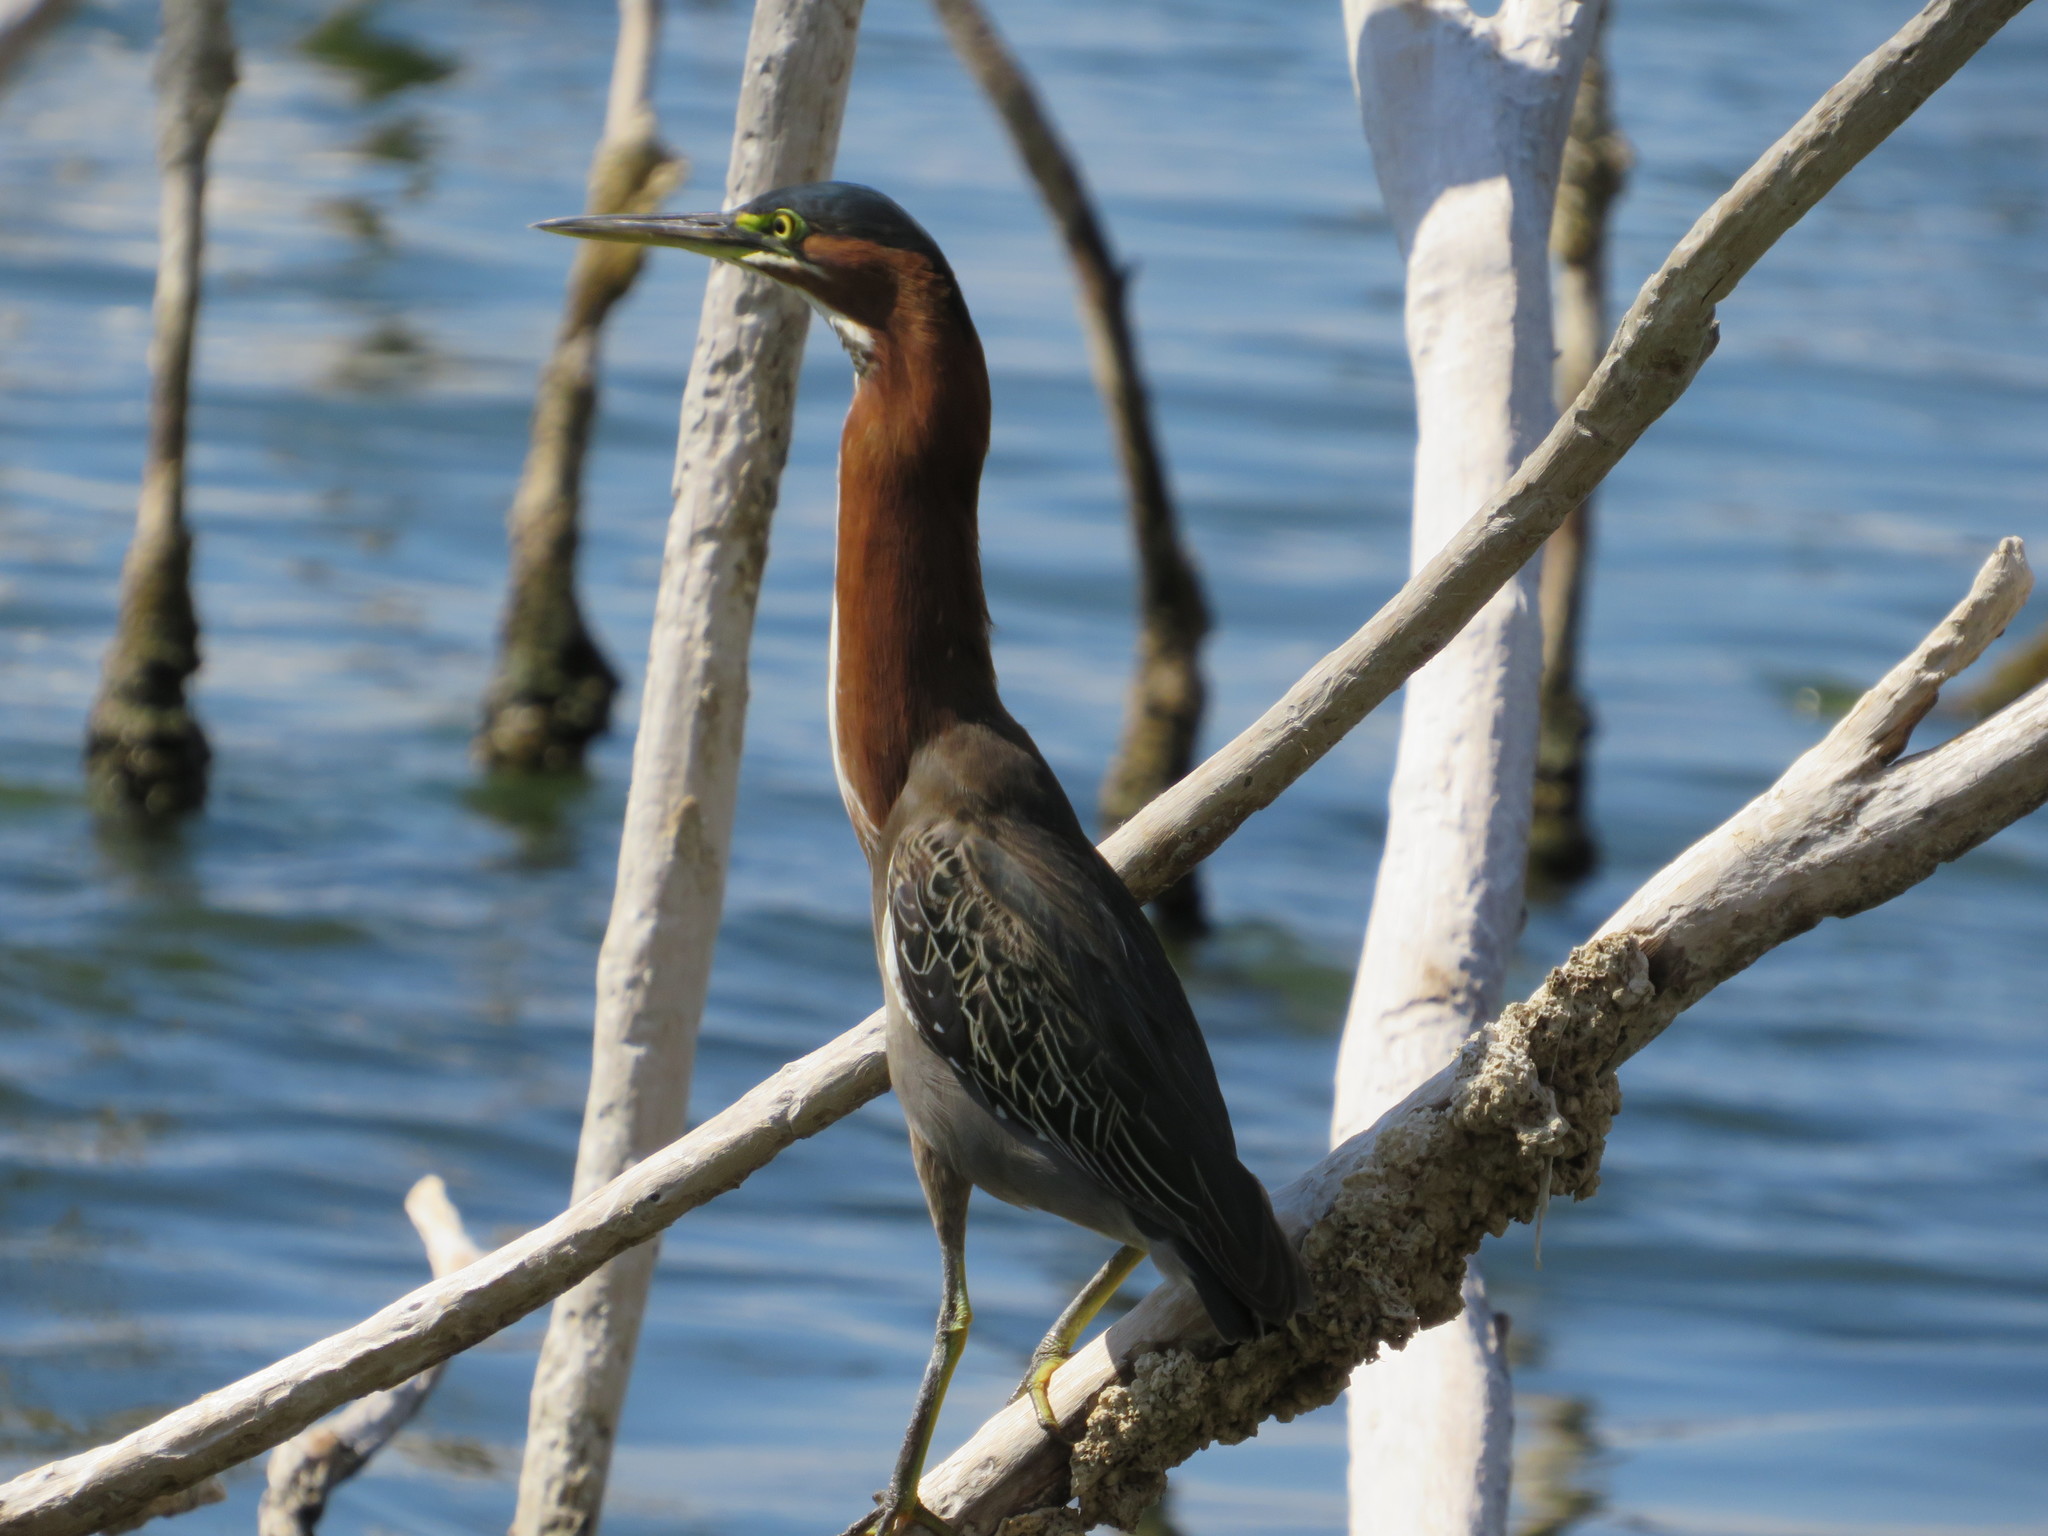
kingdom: Animalia
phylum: Chordata
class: Aves
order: Pelecaniformes
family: Ardeidae
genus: Butorides
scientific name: Butorides virescens
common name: Green heron
